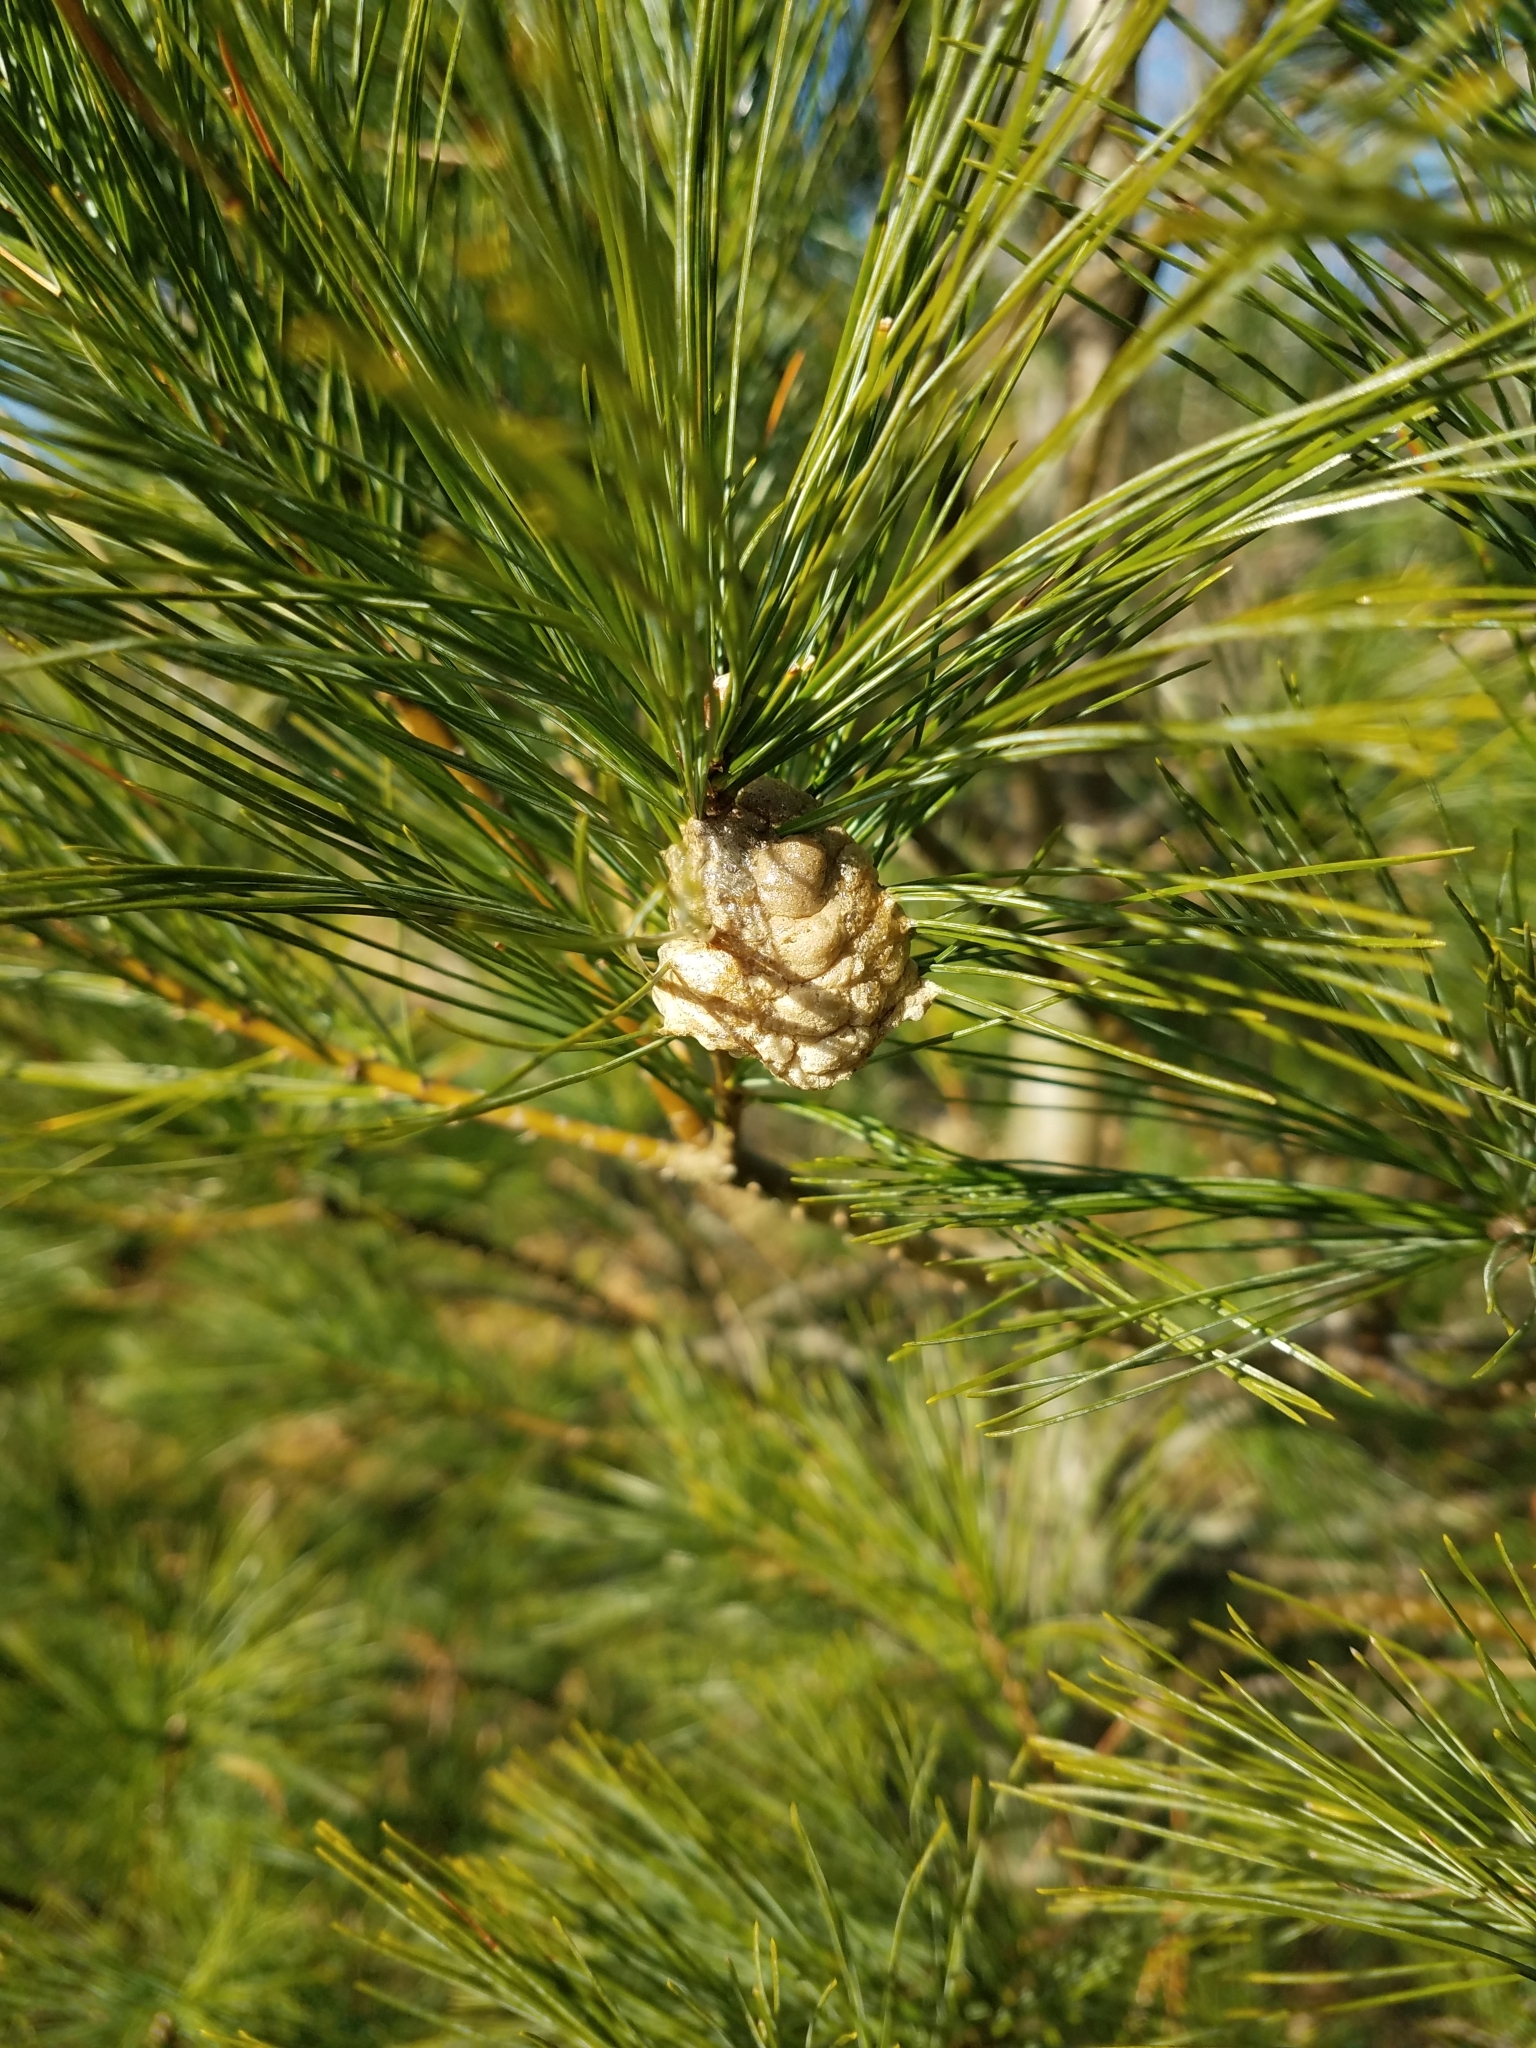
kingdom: Animalia
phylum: Arthropoda
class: Insecta
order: Mantodea
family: Mantidae
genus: Tenodera
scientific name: Tenodera sinensis
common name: Chinese mantis
